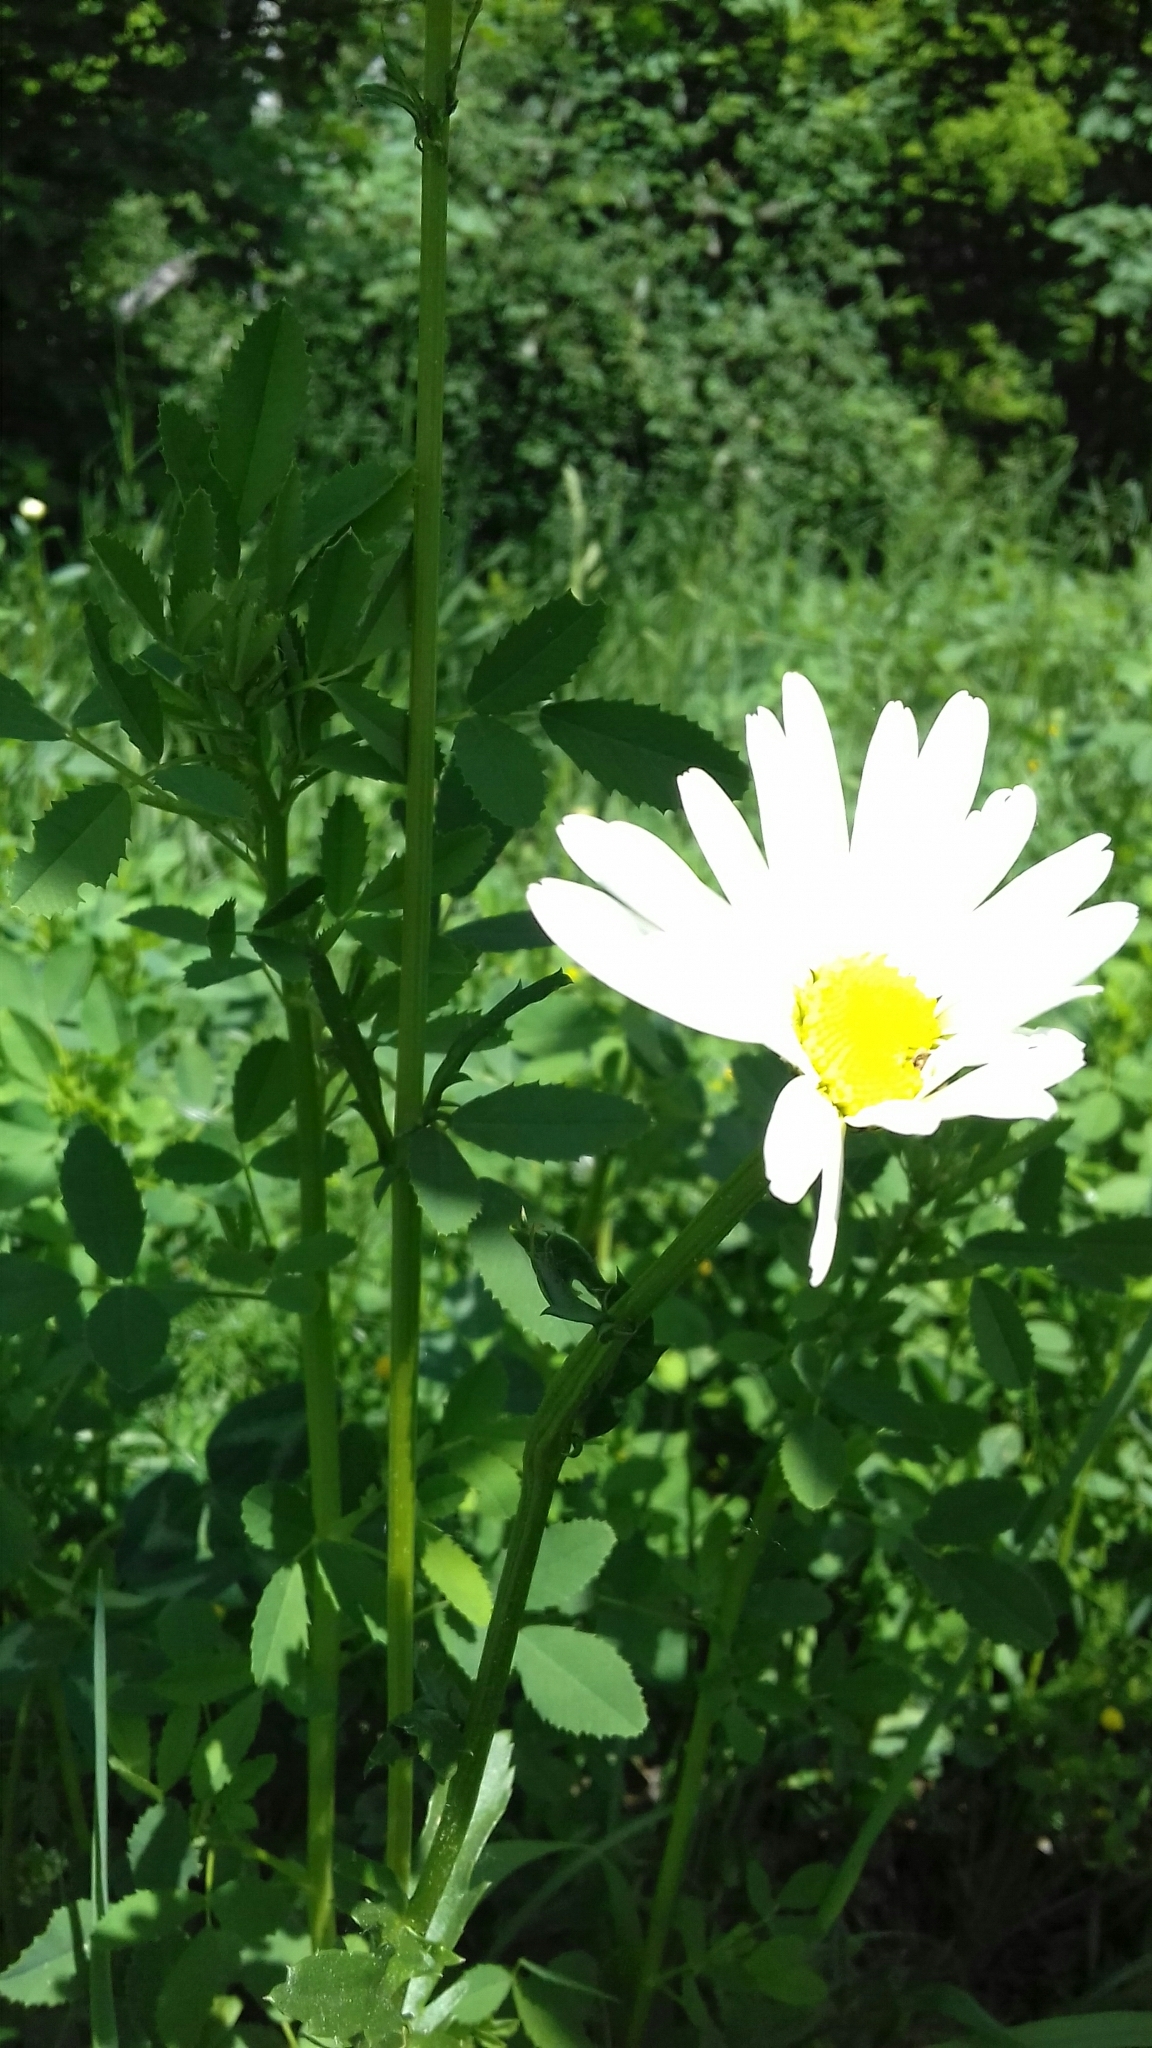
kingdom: Plantae
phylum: Tracheophyta
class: Magnoliopsida
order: Asterales
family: Asteraceae
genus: Leucanthemum
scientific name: Leucanthemum vulgare
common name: Oxeye daisy
